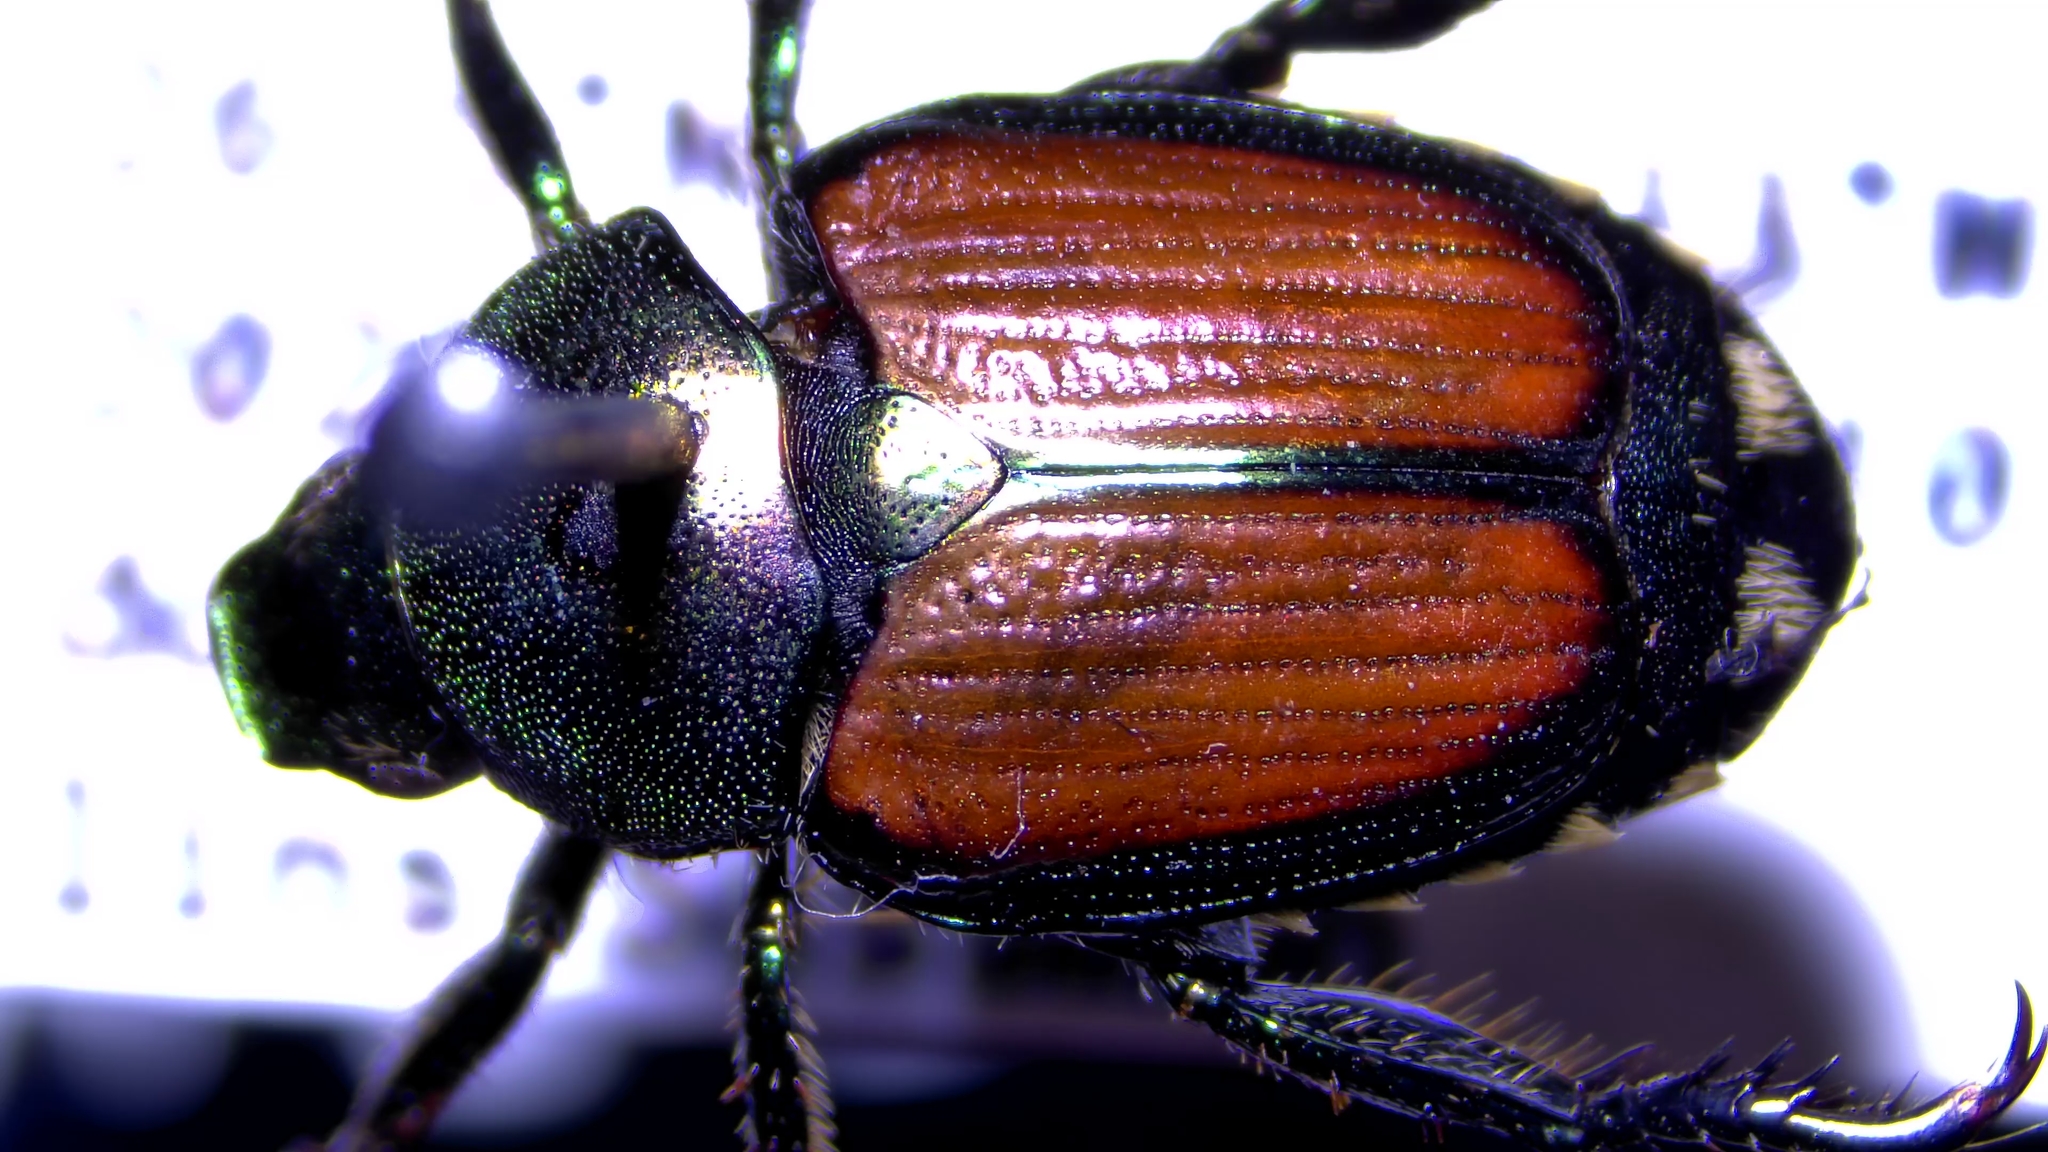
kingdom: Animalia
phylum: Arthropoda
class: Insecta
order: Coleoptera
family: Scarabaeidae
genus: Popillia
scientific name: Popillia japonica
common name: Japanese beetle
